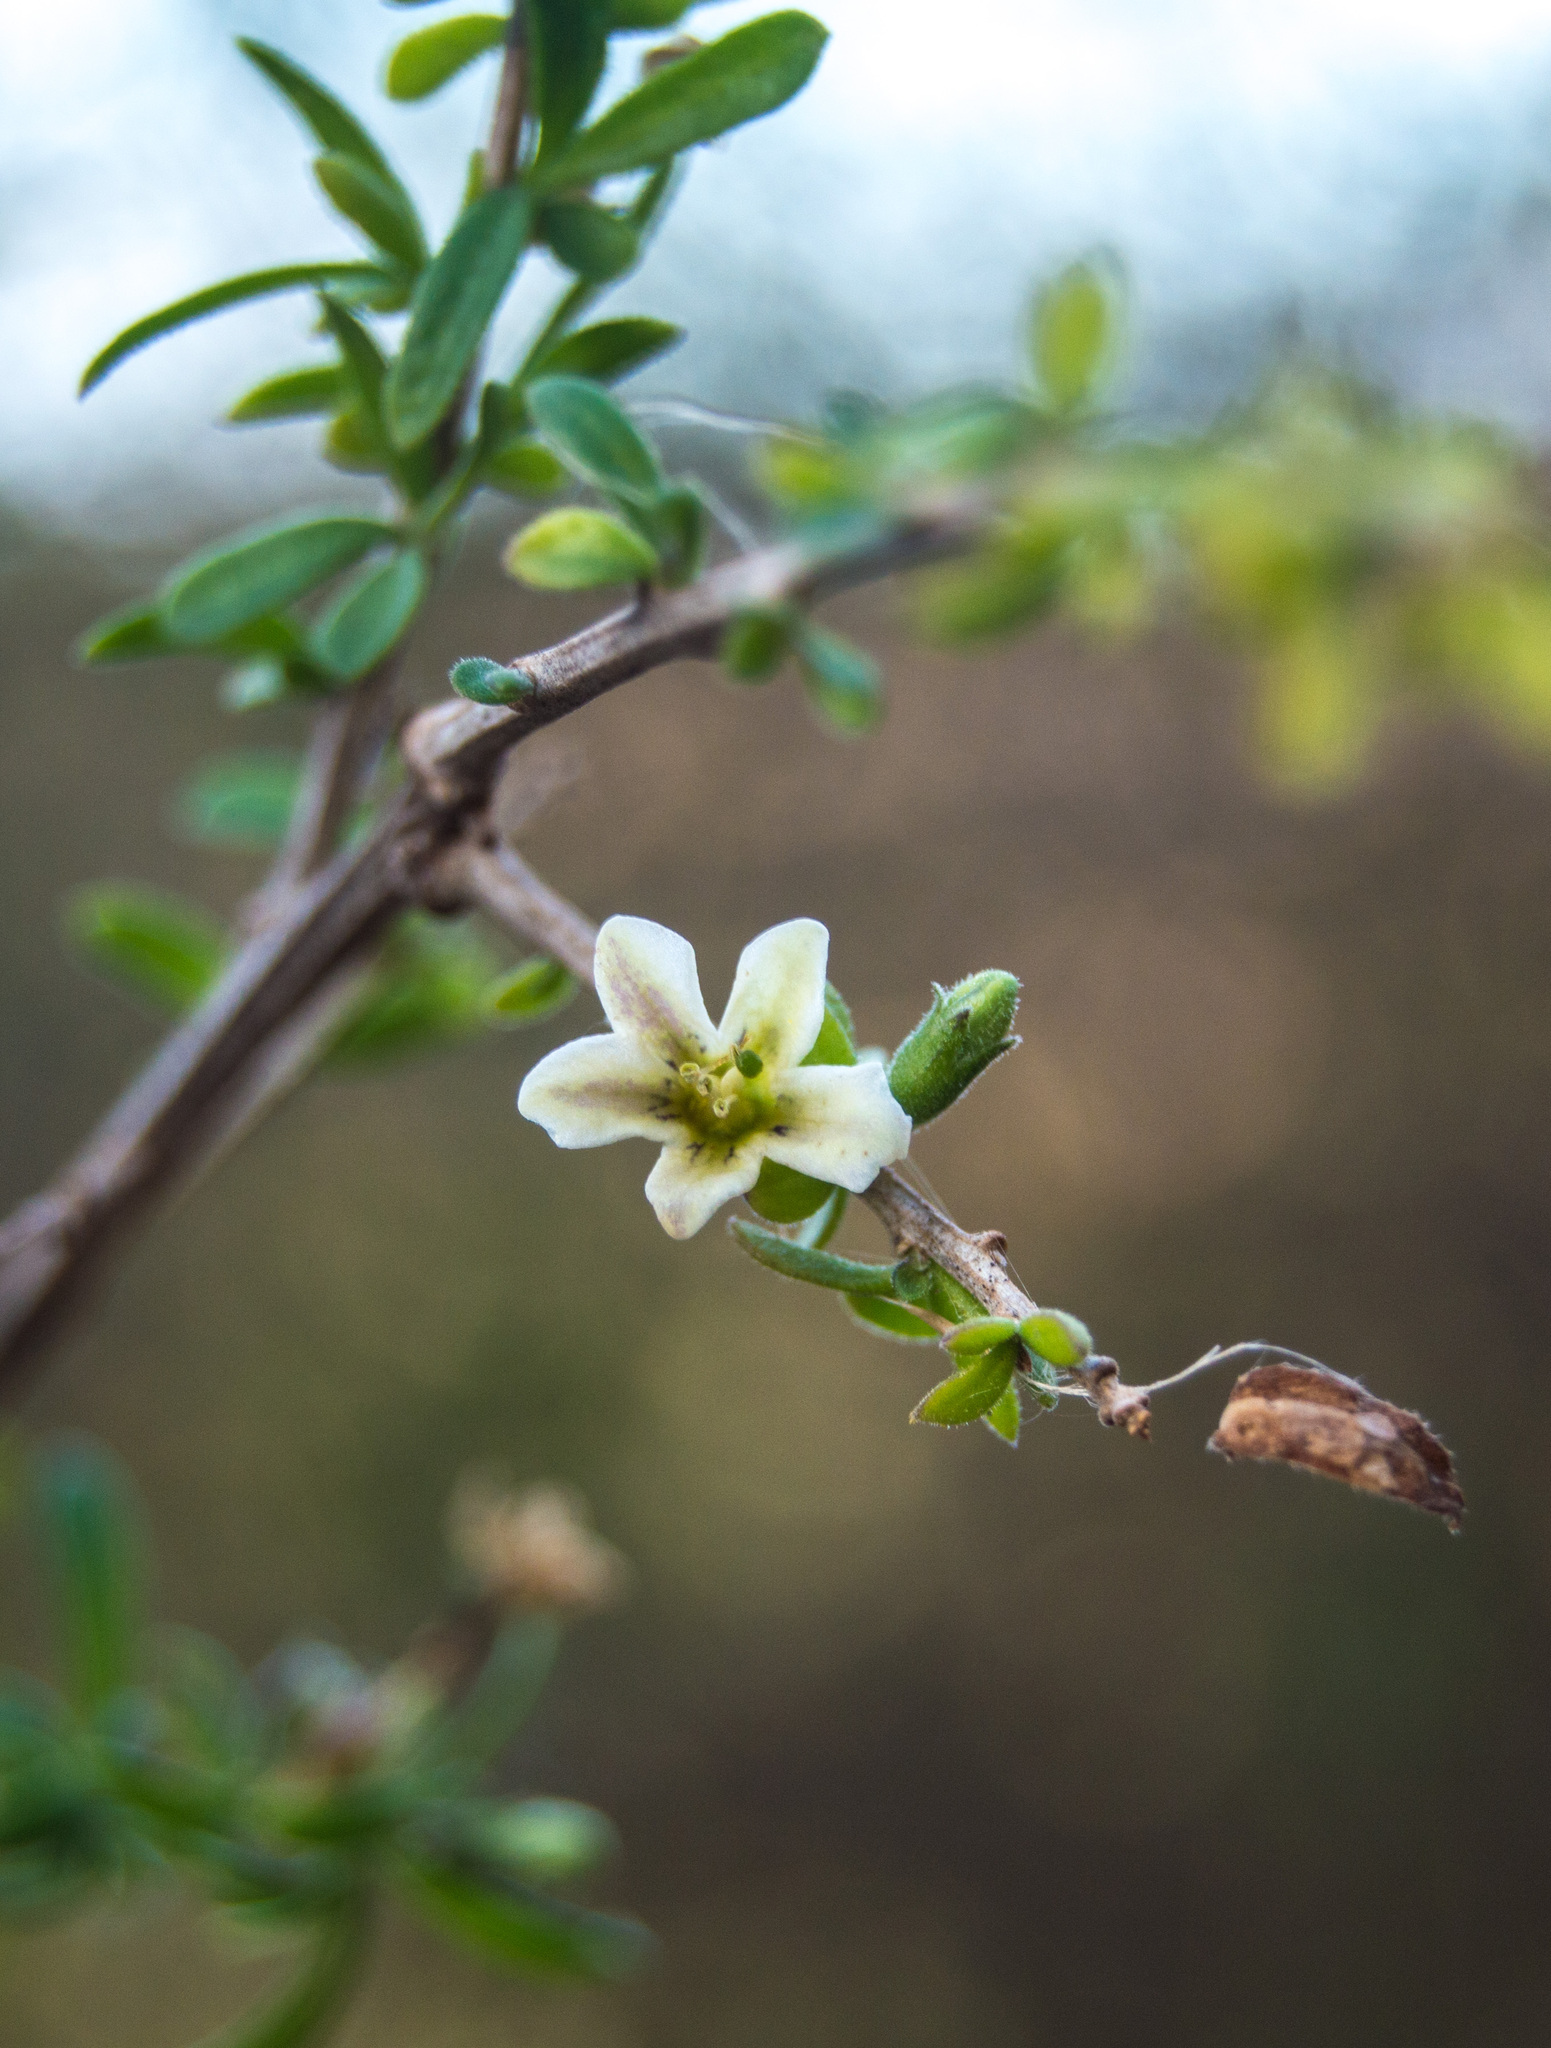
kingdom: Plantae
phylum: Tracheophyta
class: Magnoliopsida
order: Solanales
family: Solanaceae
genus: Lycium
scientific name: Lycium ciliatum
